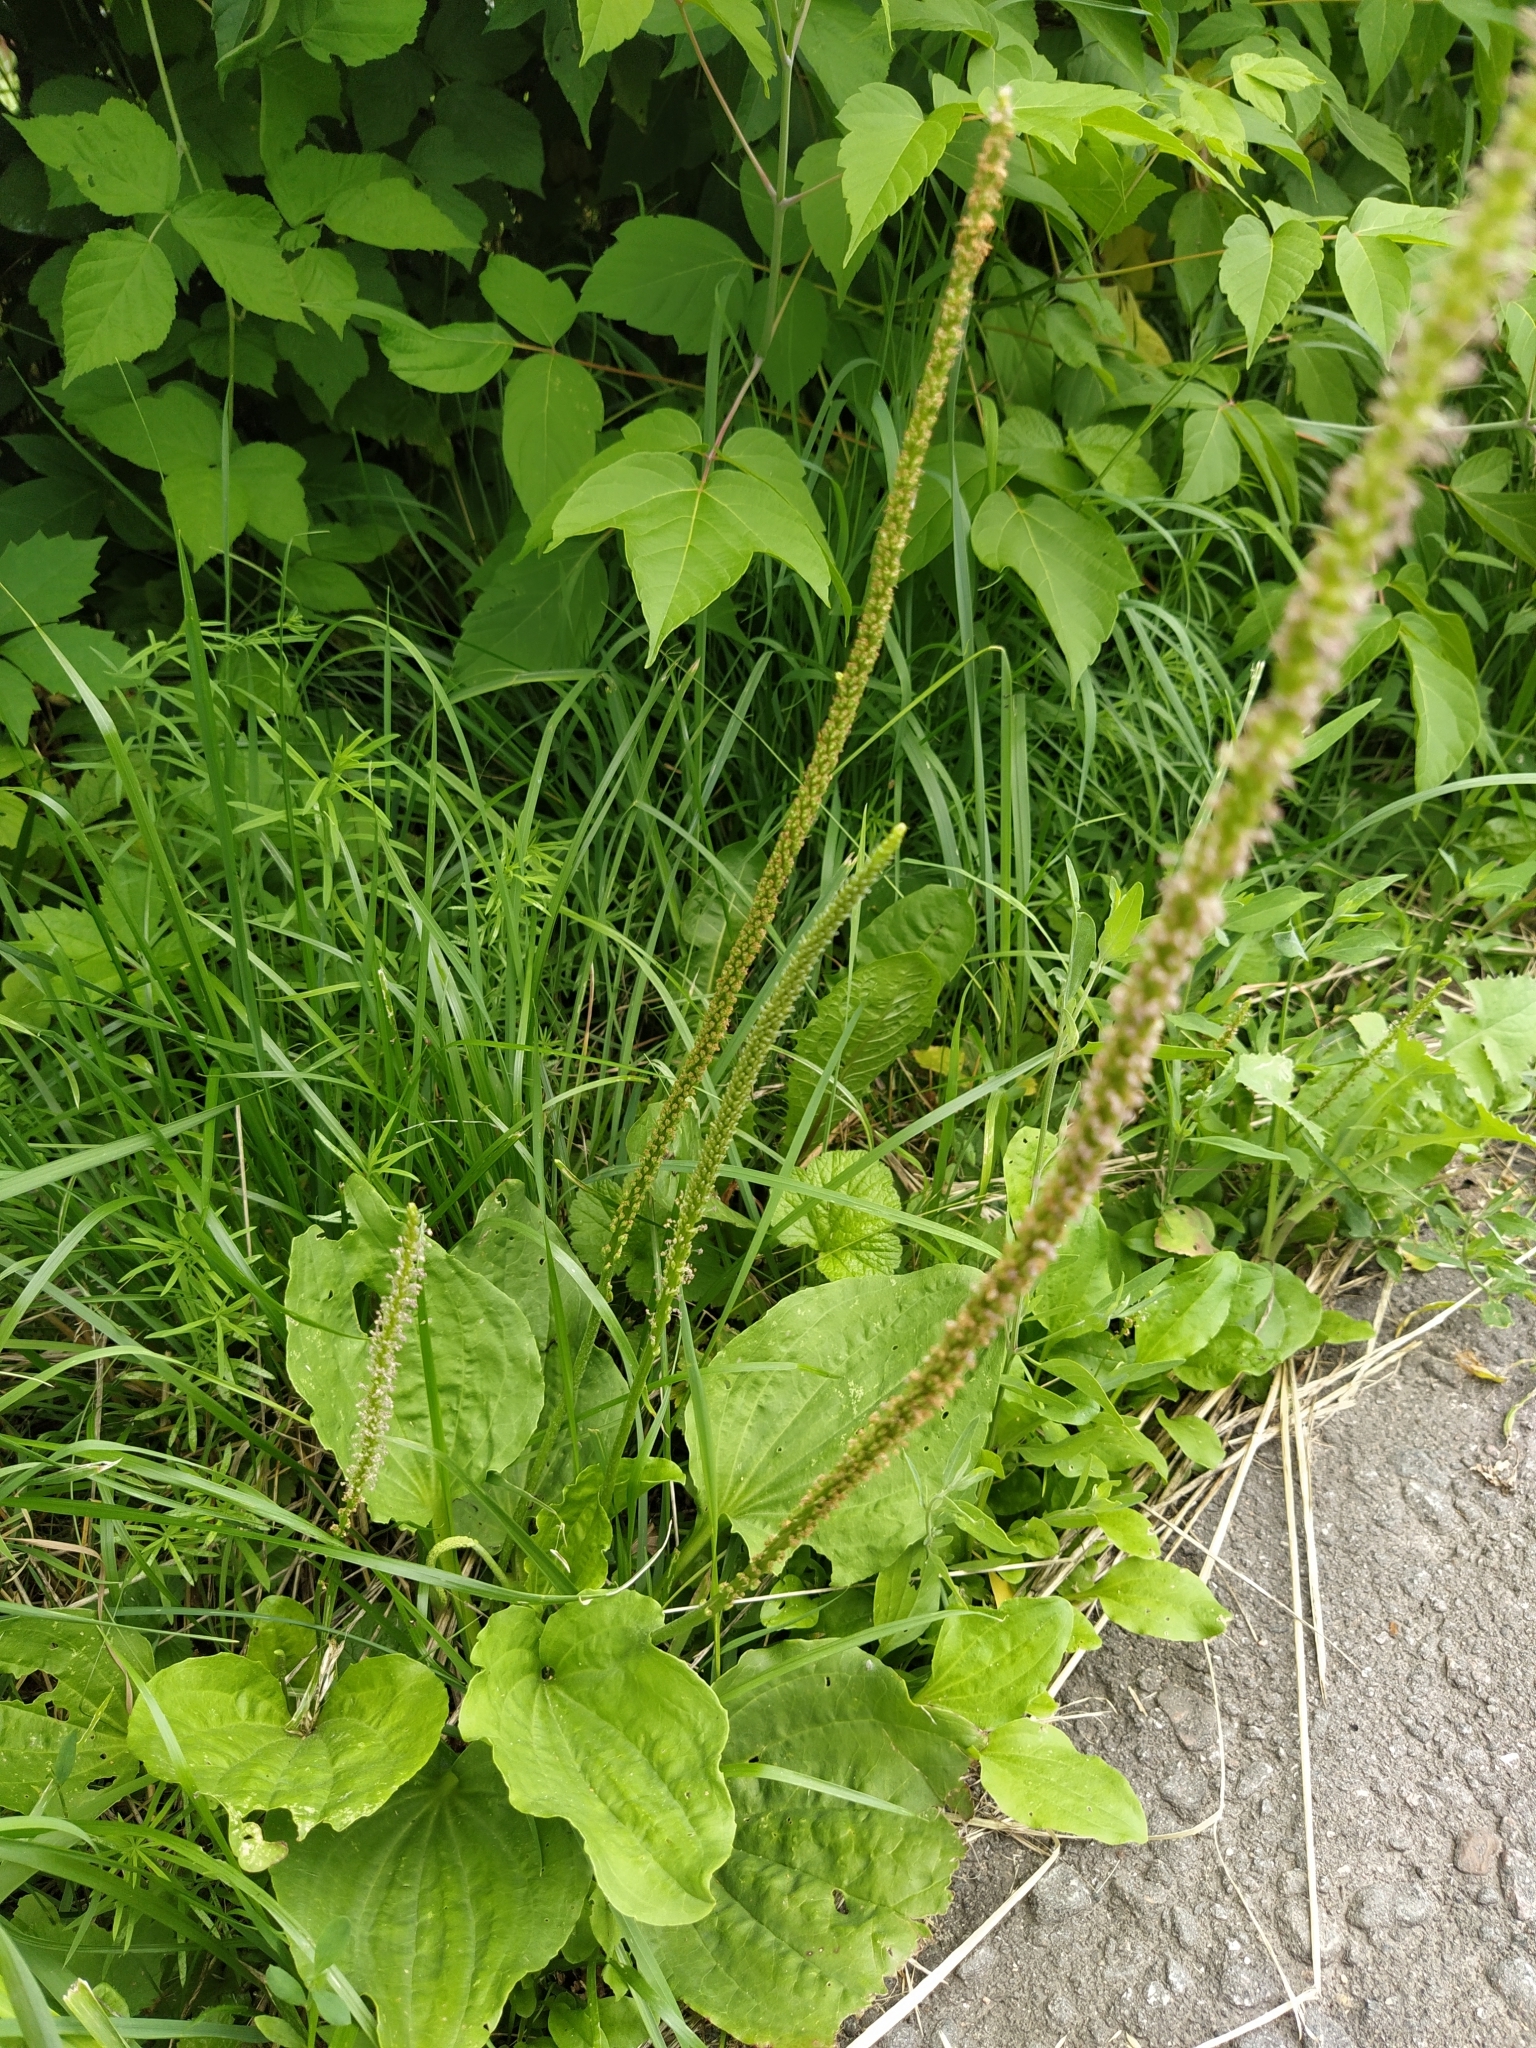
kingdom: Plantae
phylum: Tracheophyta
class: Magnoliopsida
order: Lamiales
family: Plantaginaceae
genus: Plantago
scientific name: Plantago major
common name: Common plantain
